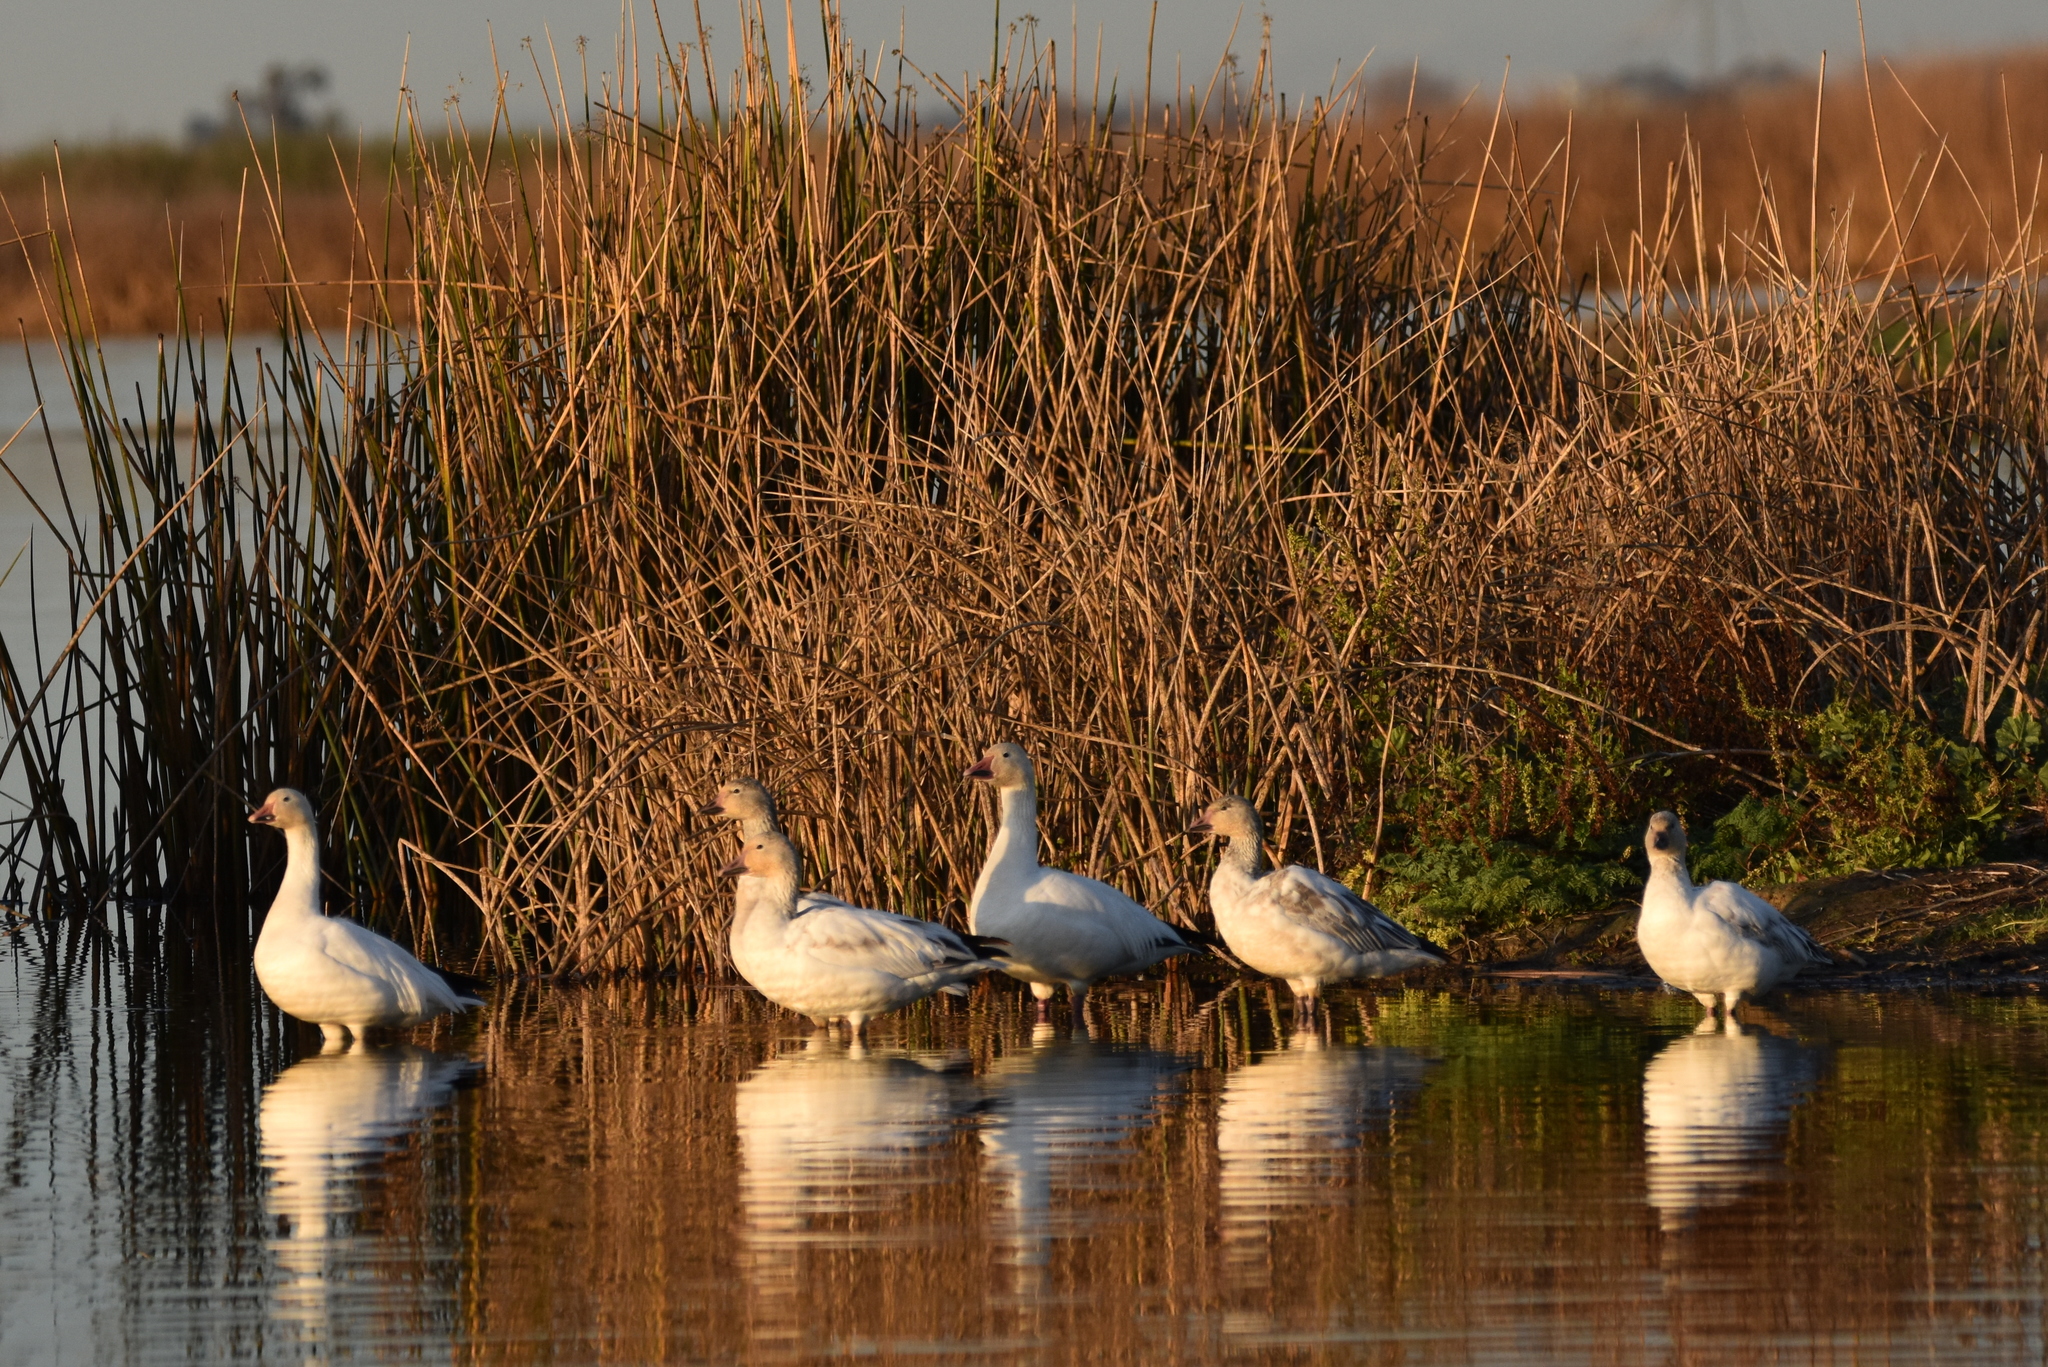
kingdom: Animalia
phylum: Chordata
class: Aves
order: Anseriformes
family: Anatidae
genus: Anser
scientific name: Anser caerulescens
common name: Snow goose
